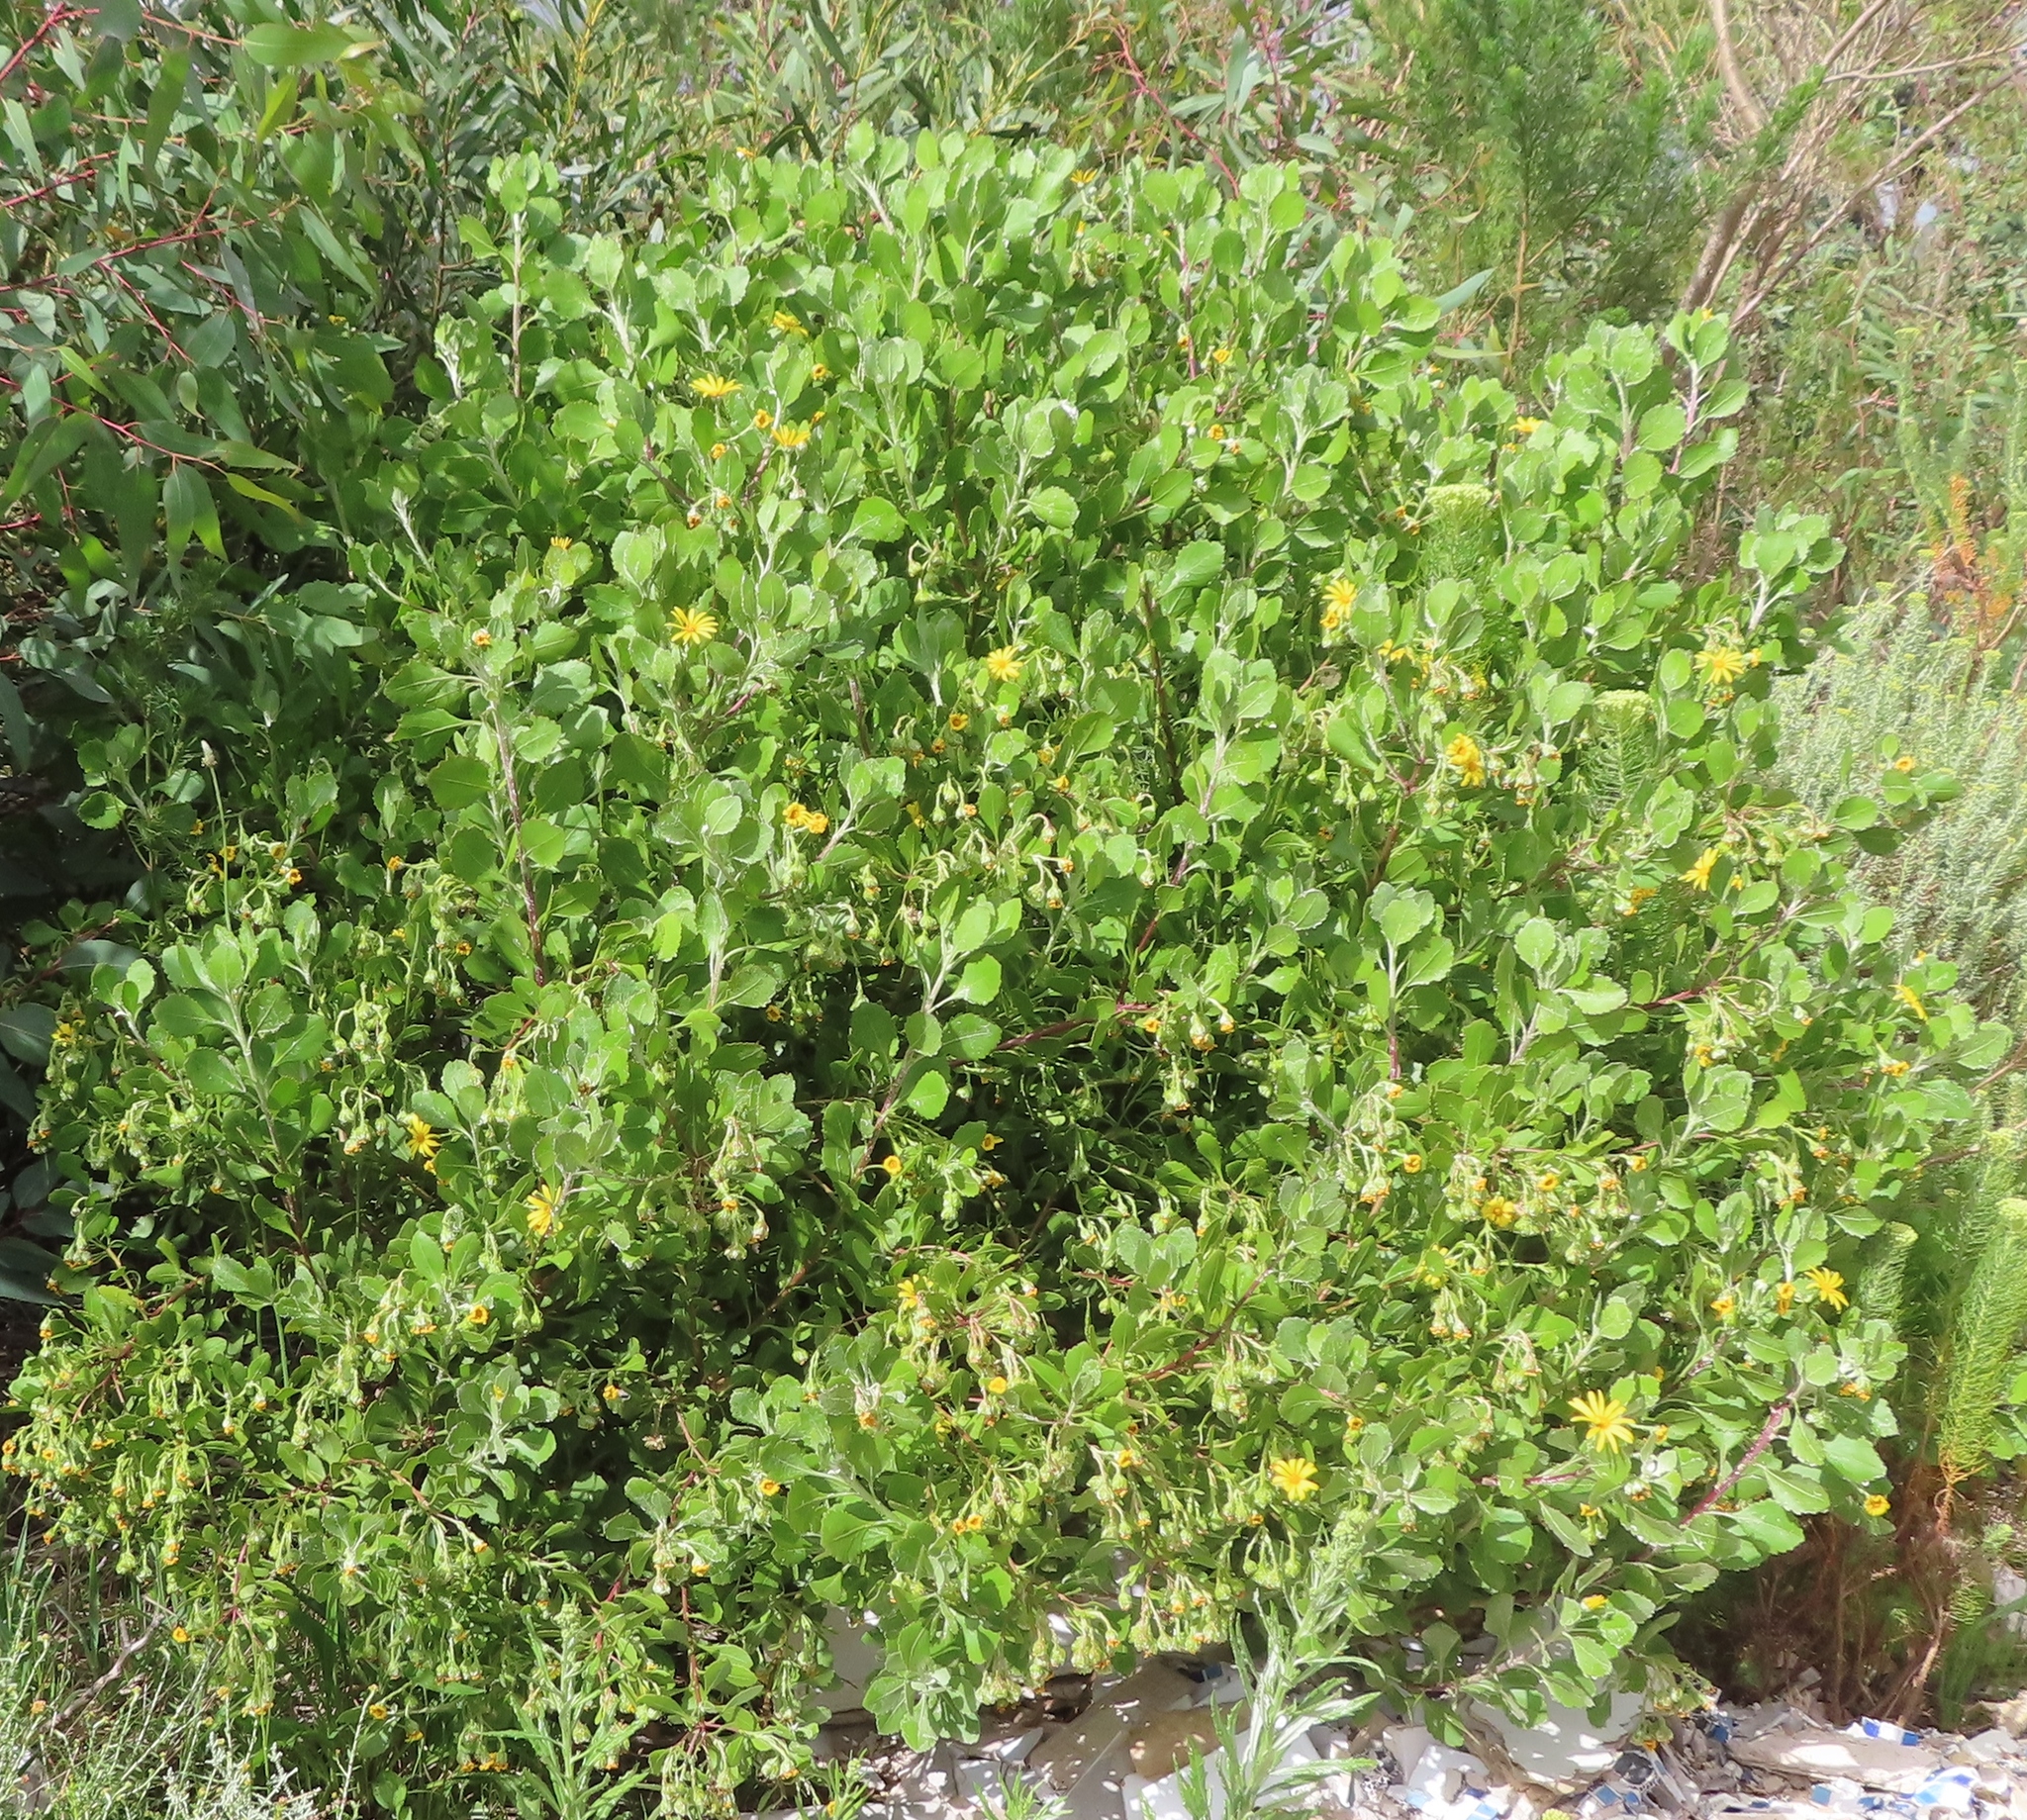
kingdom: Plantae
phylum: Tracheophyta
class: Magnoliopsida
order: Asterales
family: Asteraceae
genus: Osteospermum
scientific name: Osteospermum moniliferum
